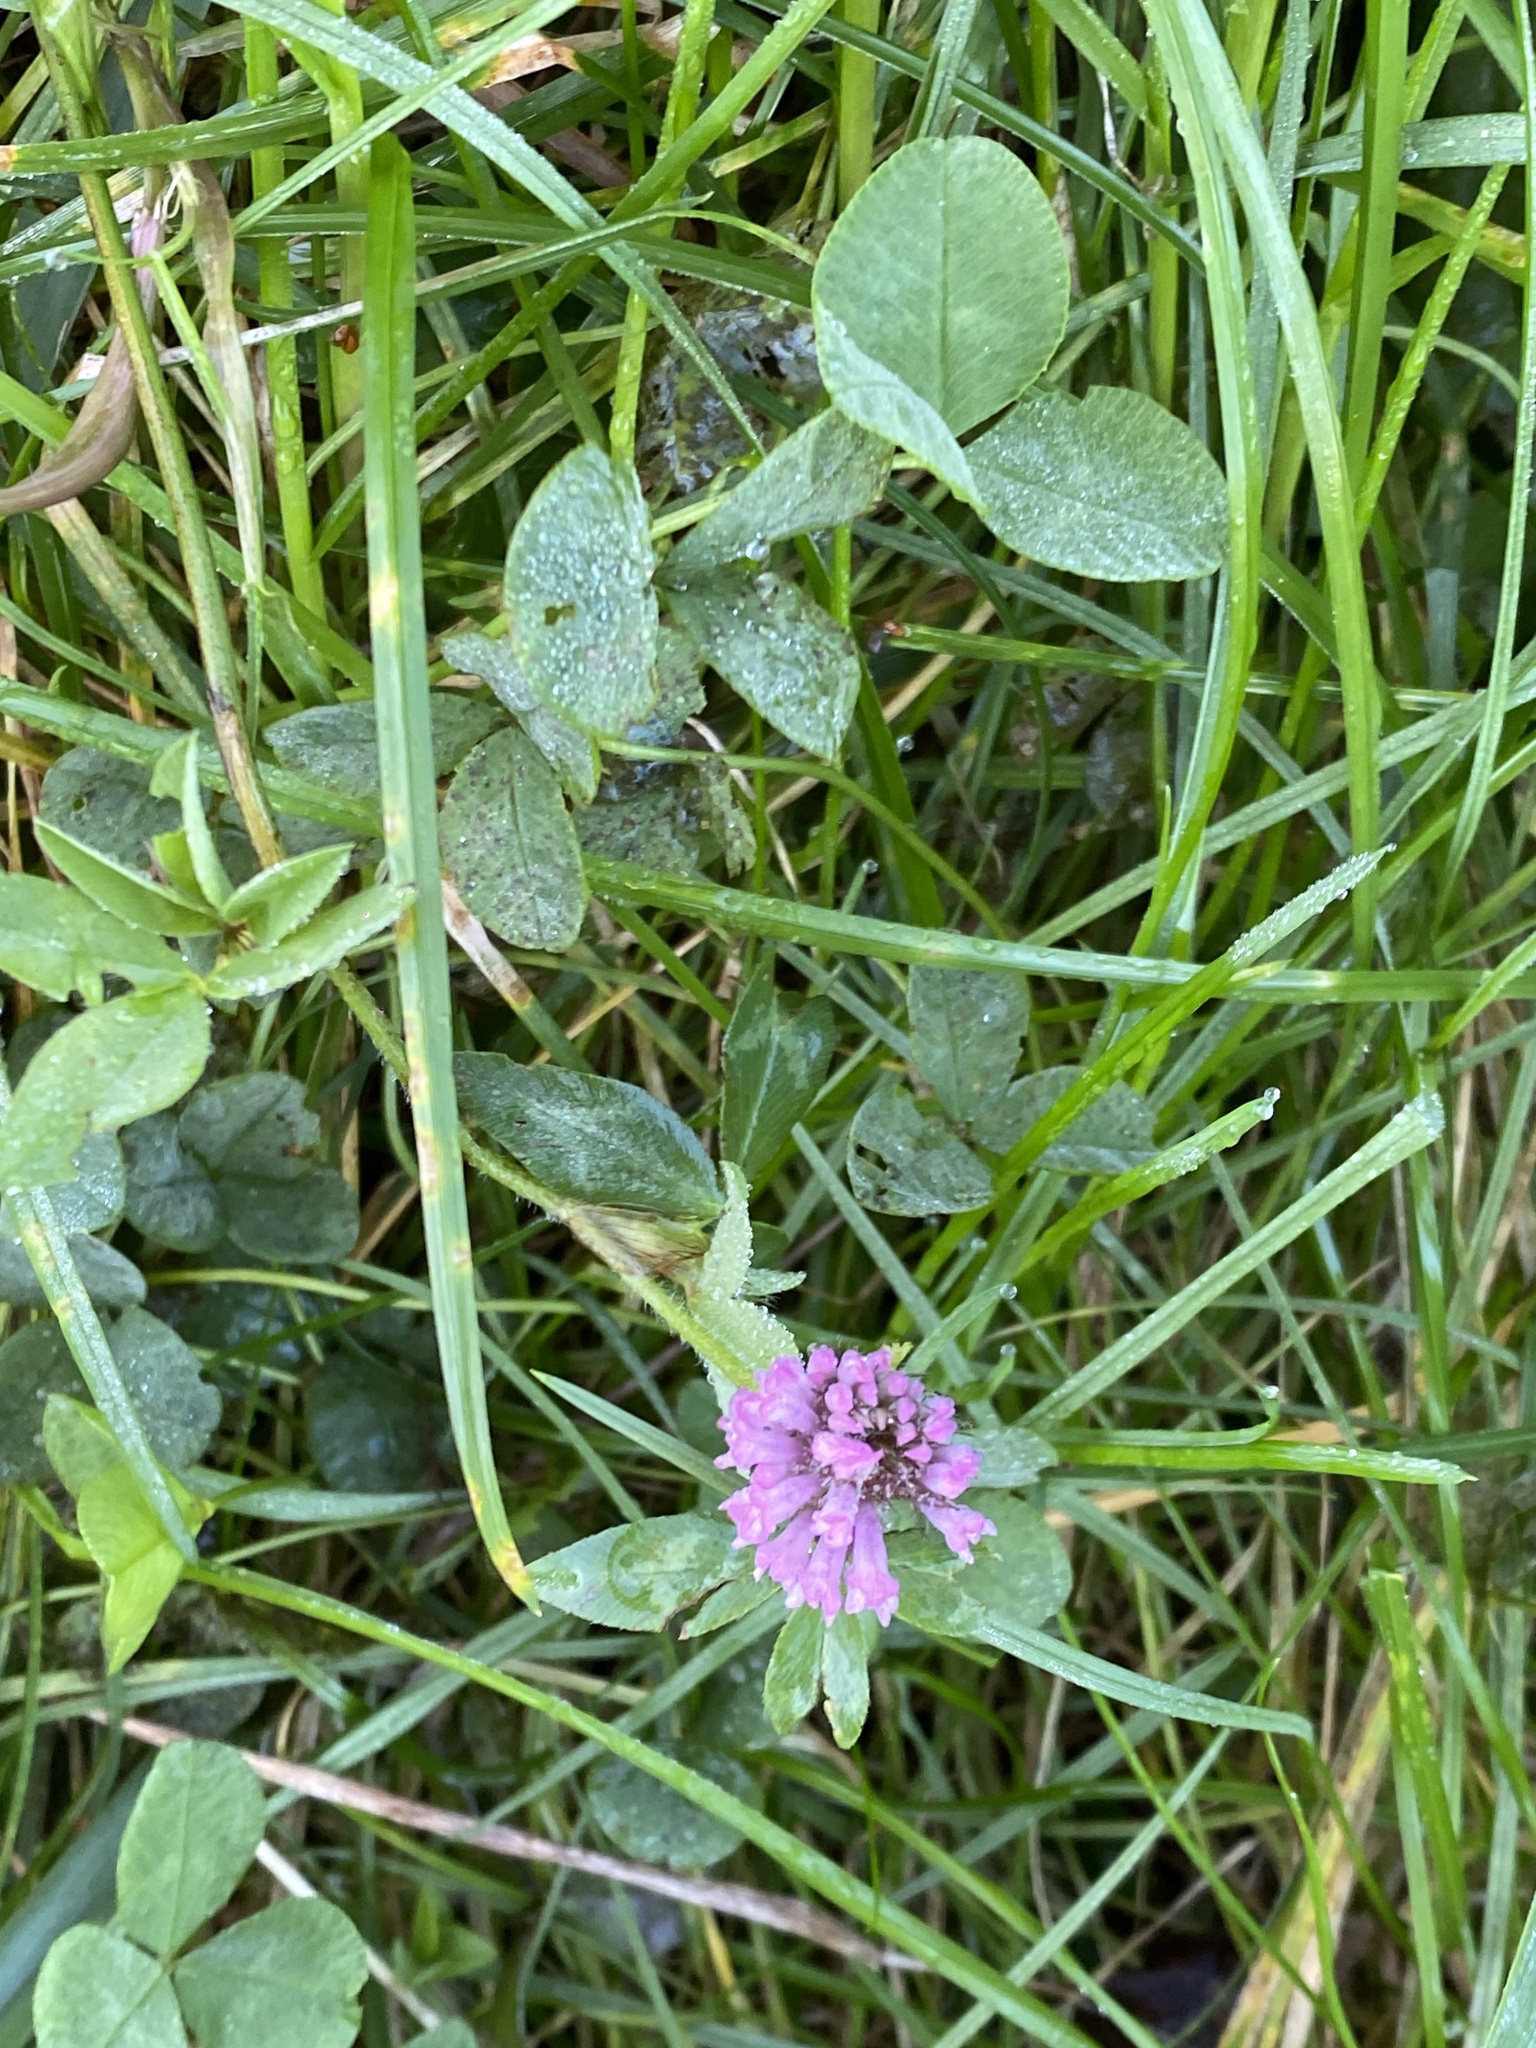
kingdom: Plantae
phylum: Tracheophyta
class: Magnoliopsida
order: Fabales
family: Fabaceae
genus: Trifolium
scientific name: Trifolium pratense
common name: Red clover
